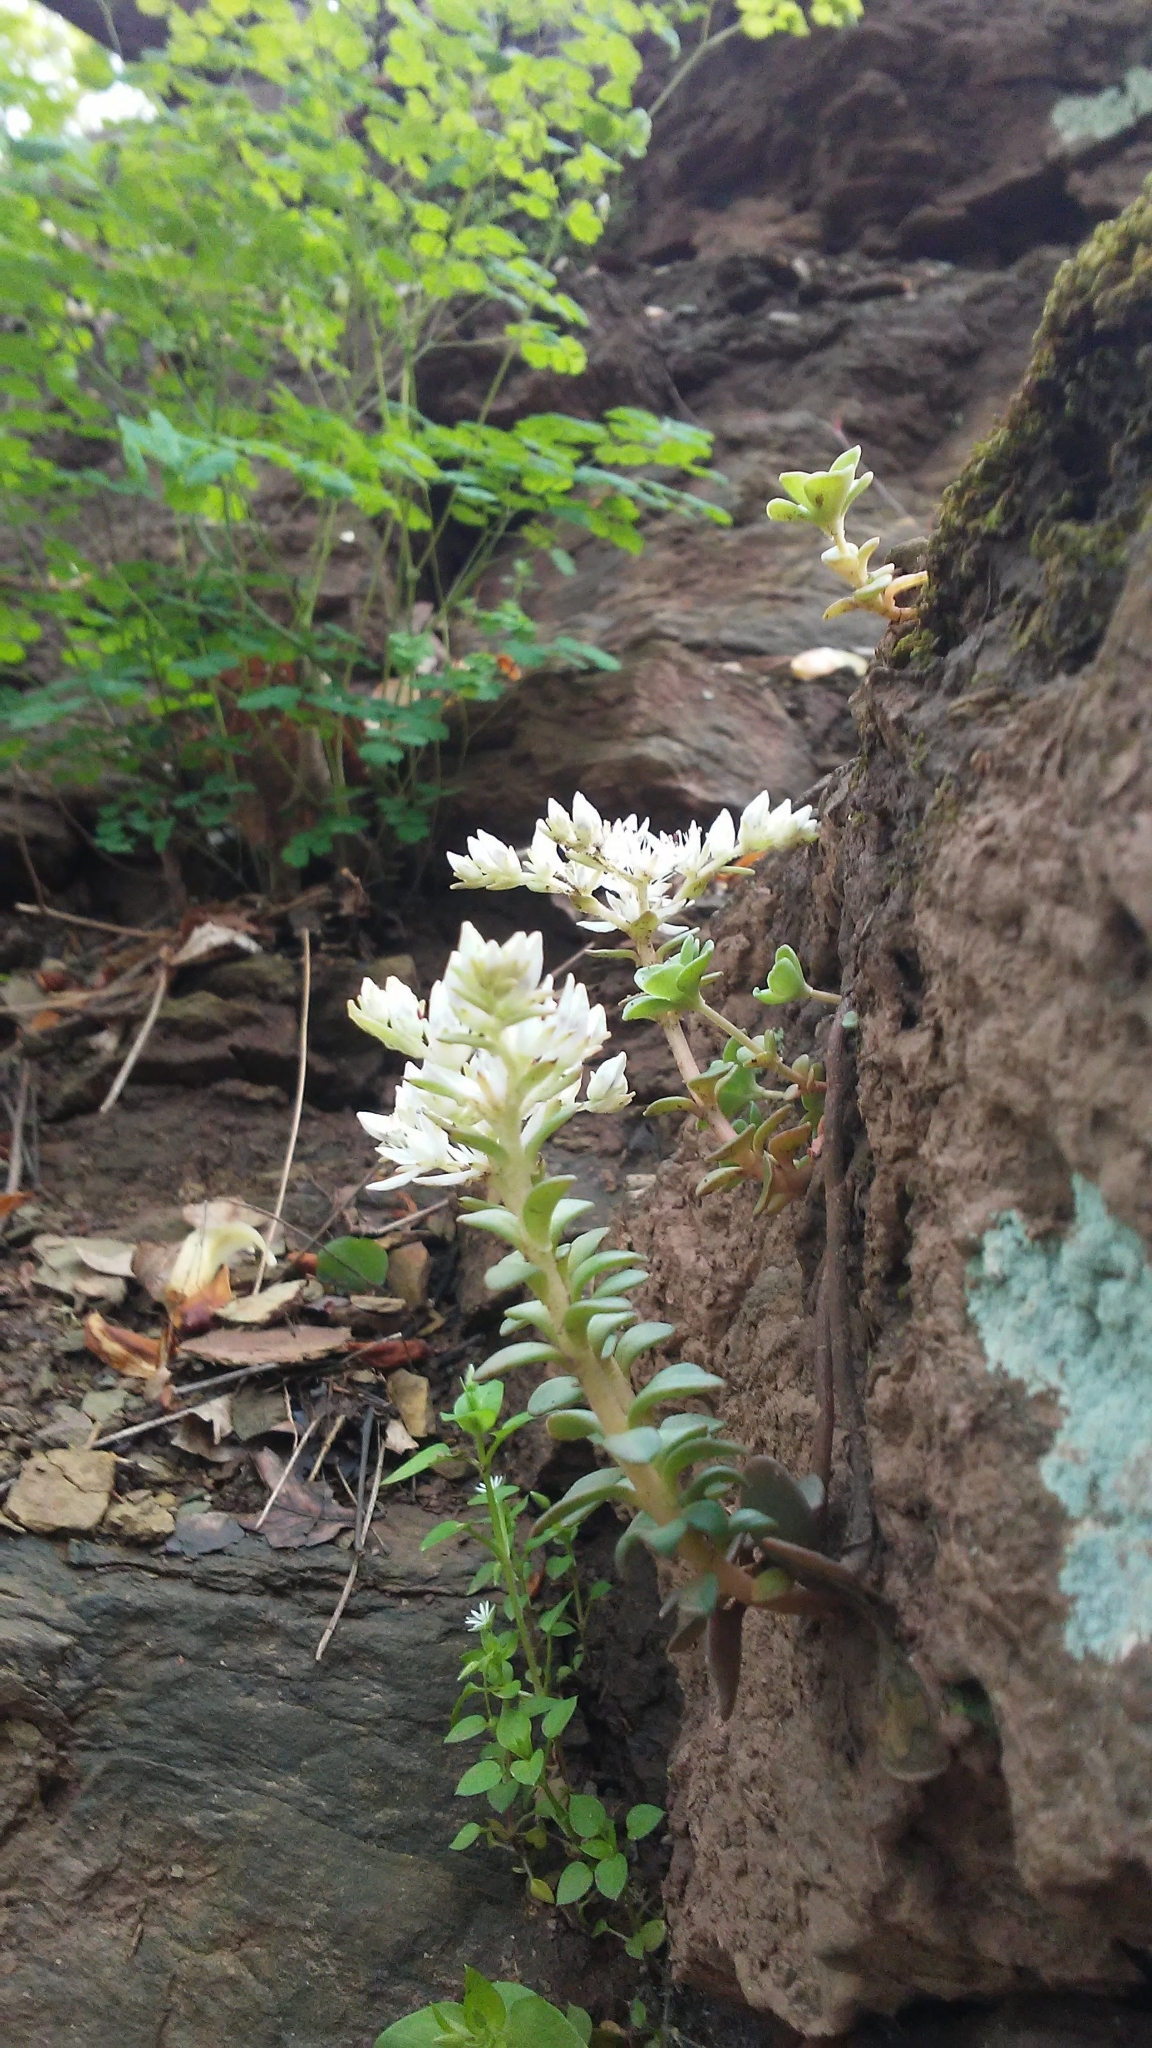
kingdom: Plantae
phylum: Tracheophyta
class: Magnoliopsida
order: Saxifragales
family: Crassulaceae
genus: Sedum
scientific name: Sedum ternatum
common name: Wild stonecrop
